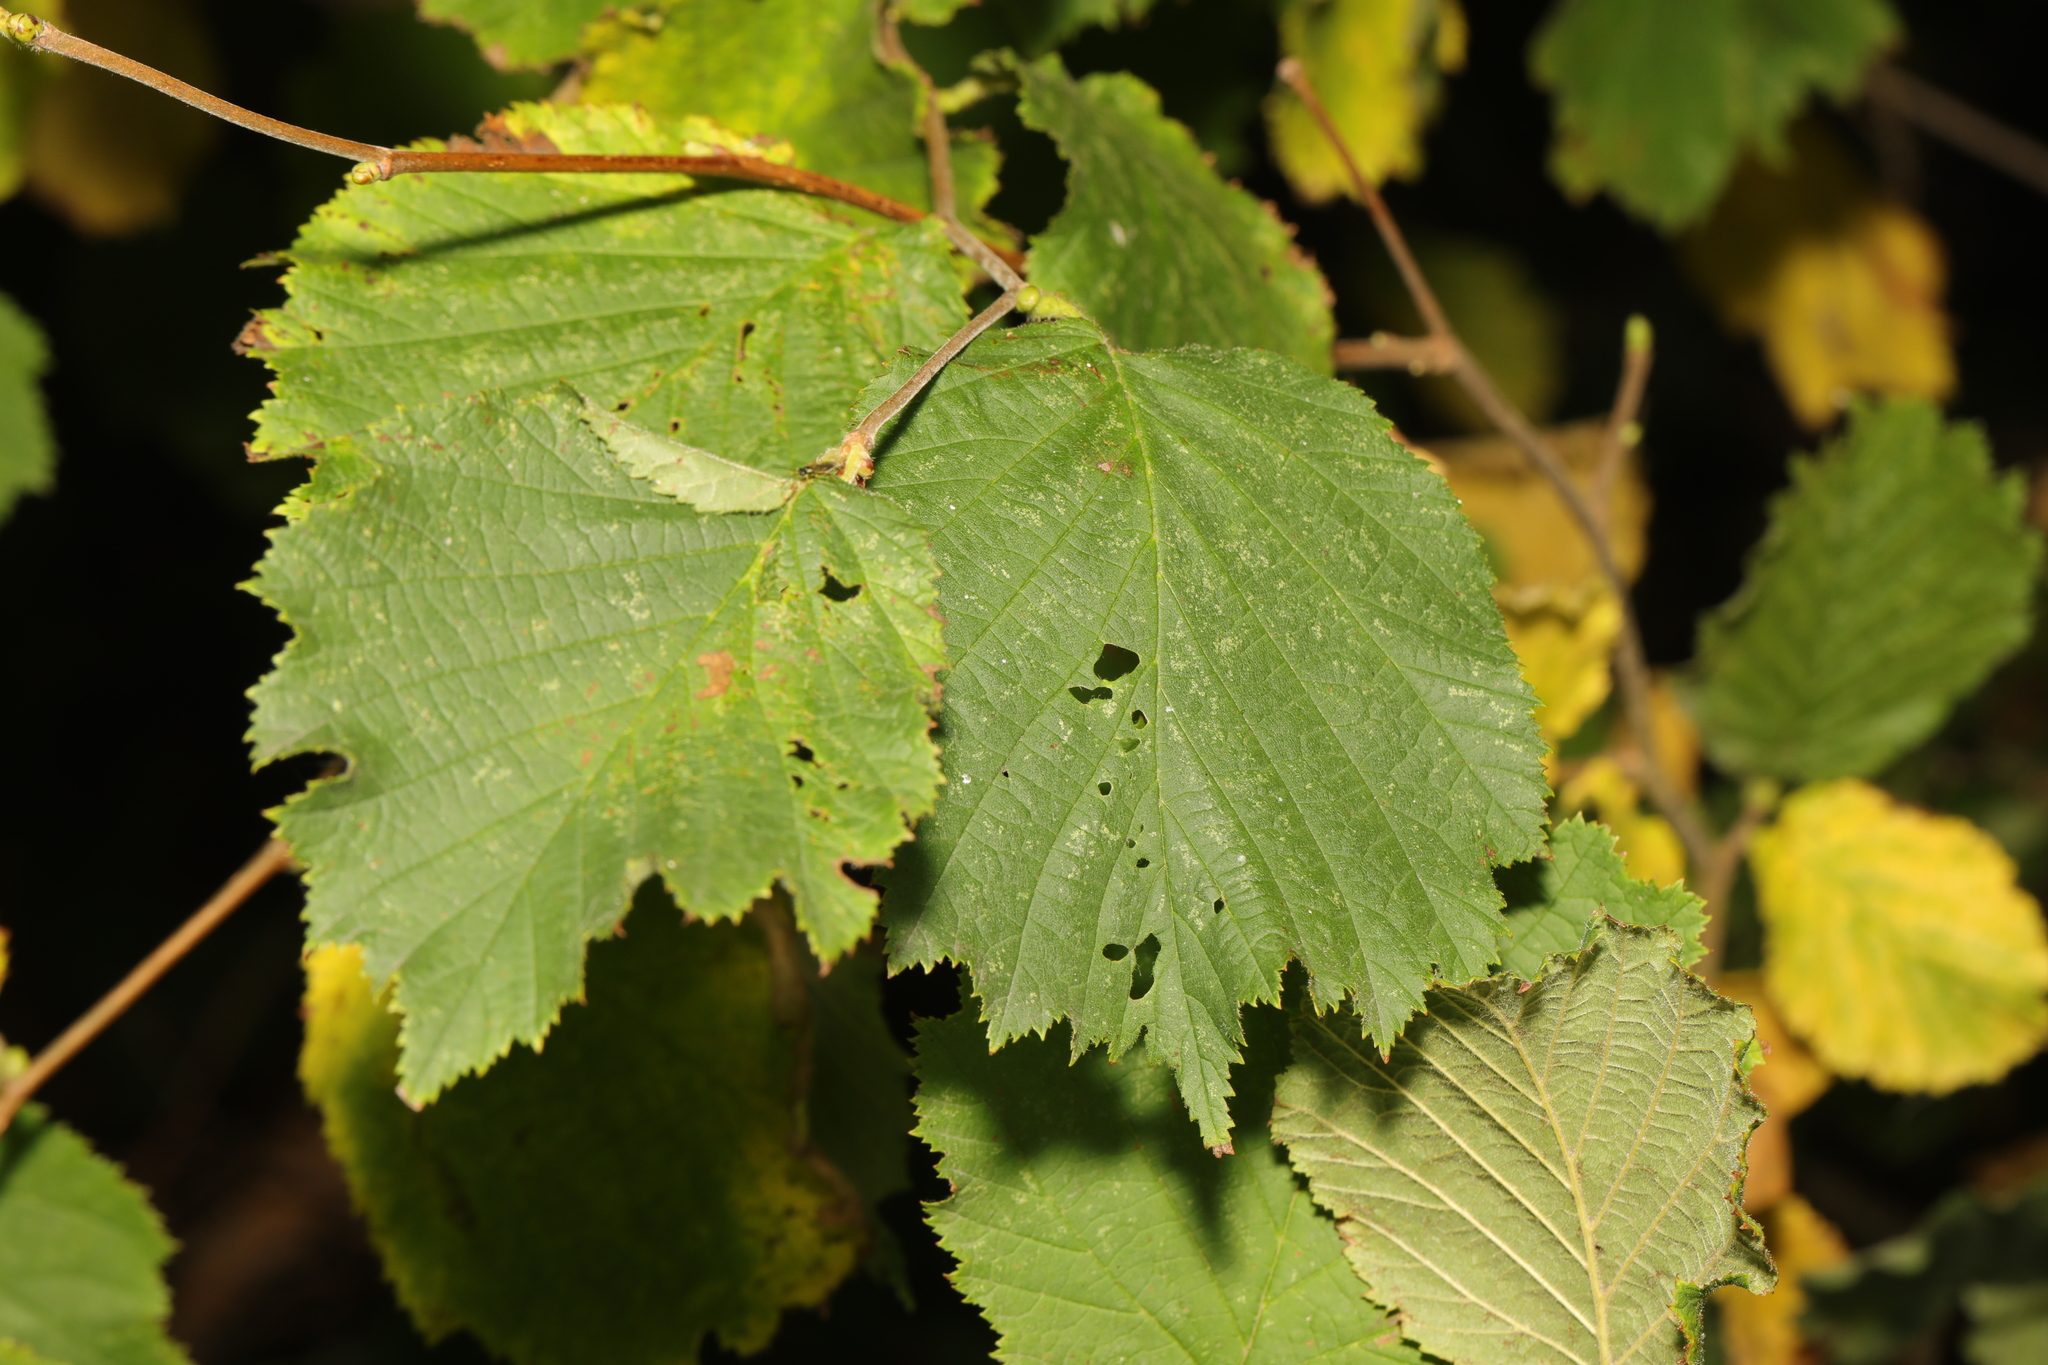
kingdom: Plantae
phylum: Tracheophyta
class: Magnoliopsida
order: Fagales
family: Betulaceae
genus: Corylus
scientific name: Corylus avellana
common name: European hazel
